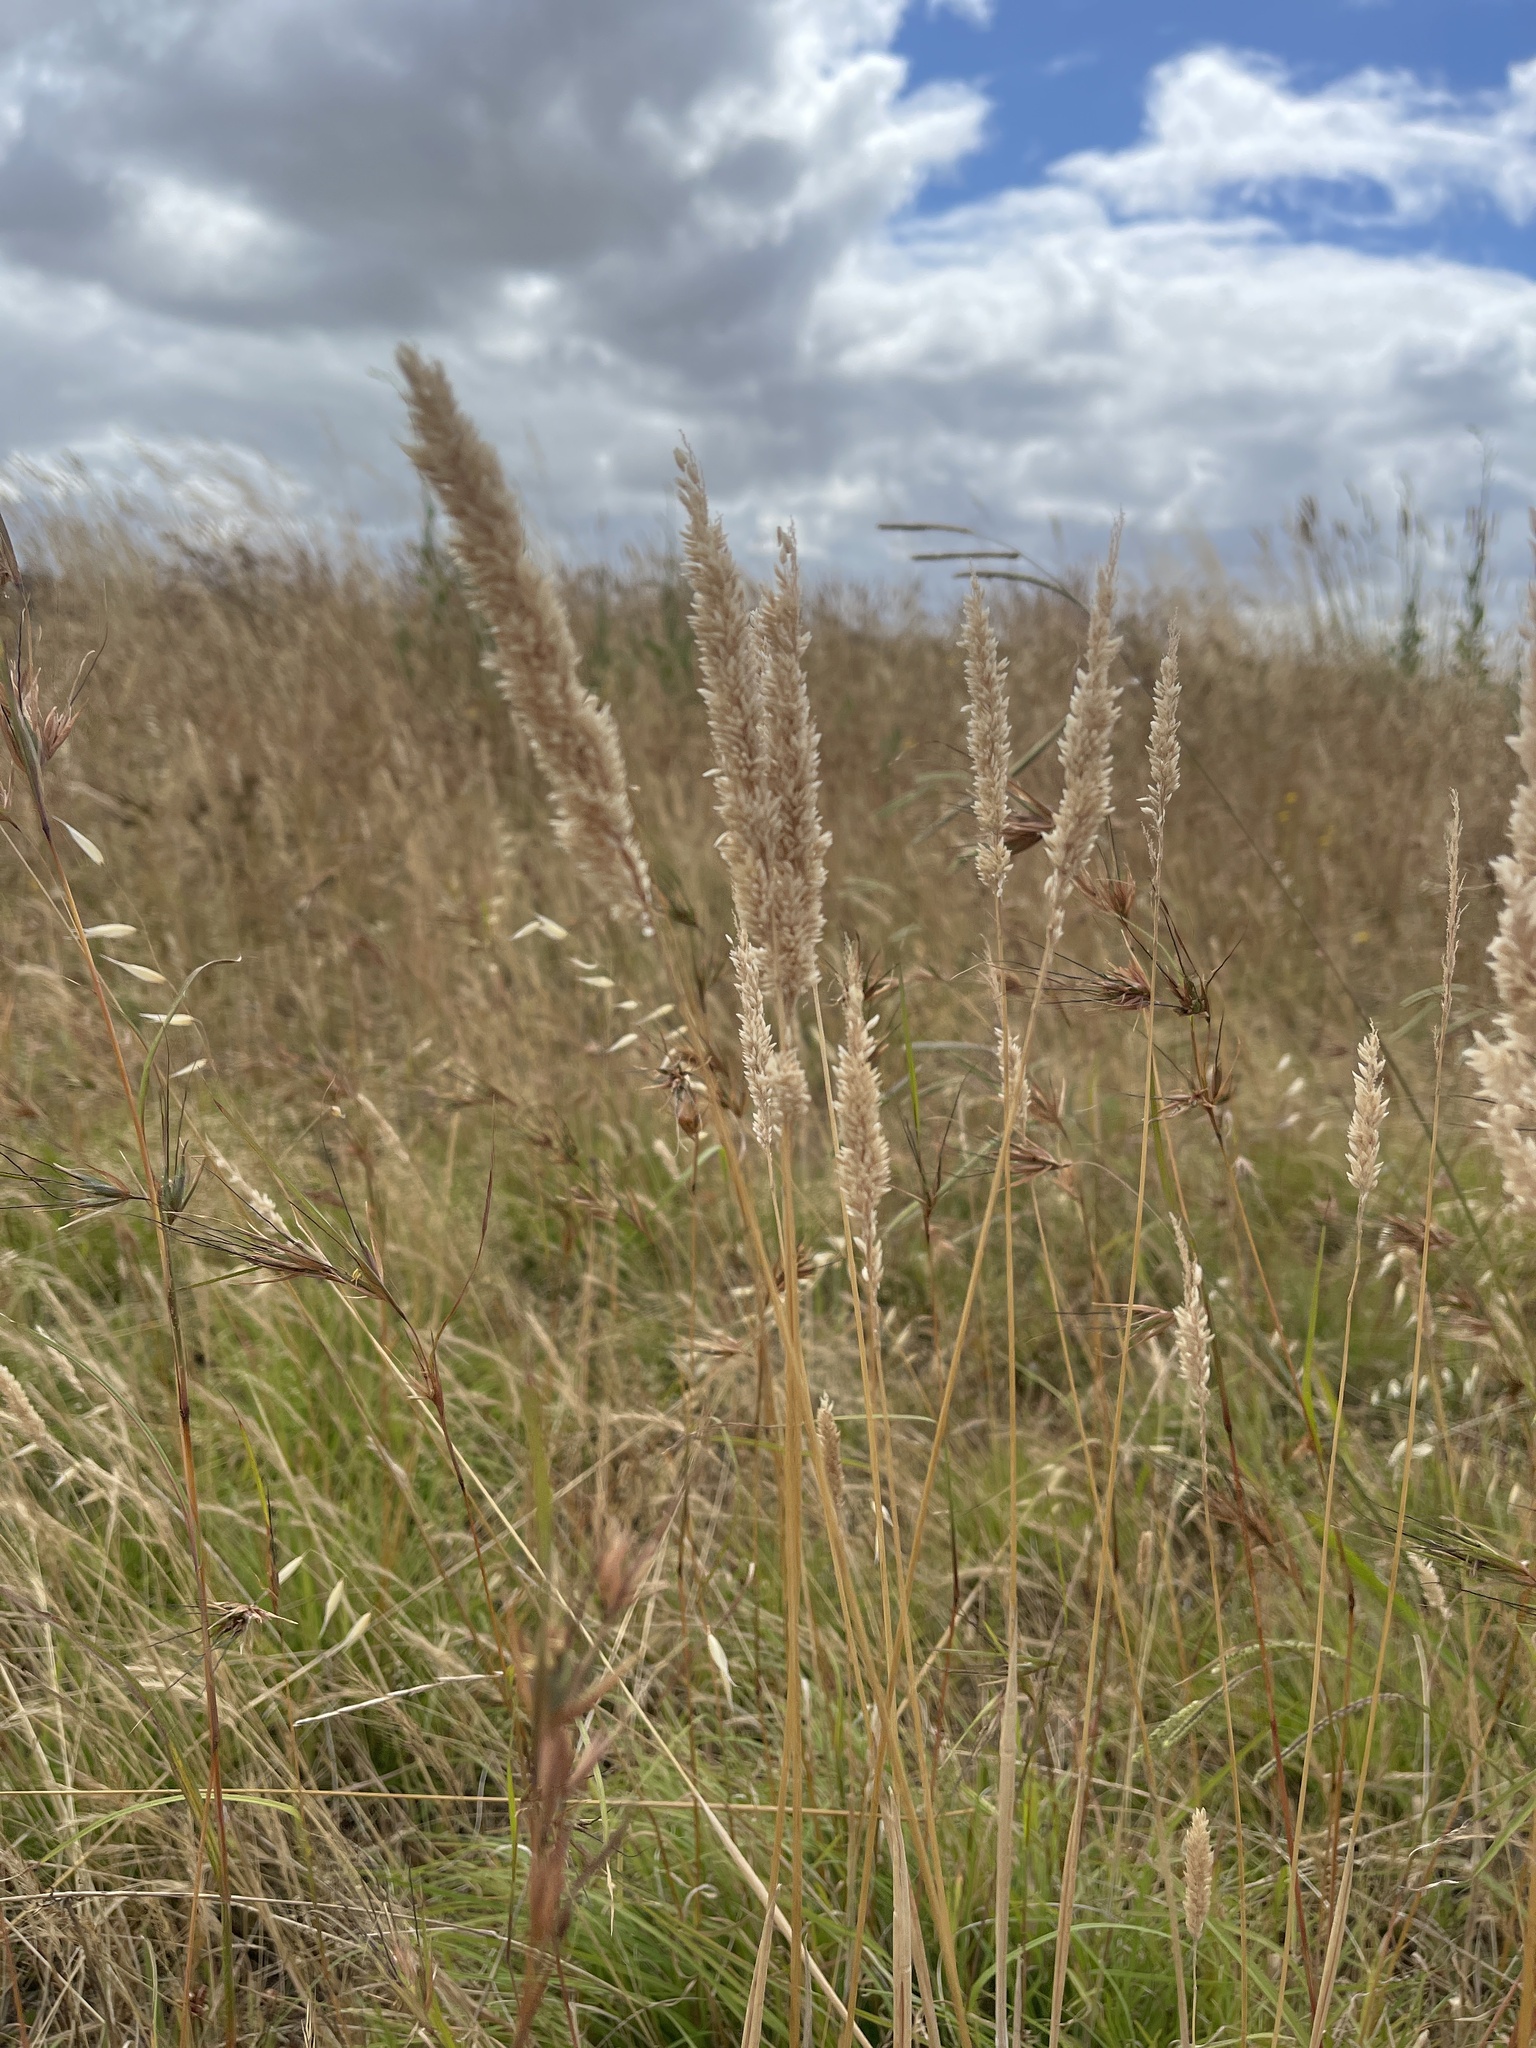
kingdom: Plantae
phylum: Tracheophyta
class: Liliopsida
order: Poales
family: Poaceae
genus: Holcus
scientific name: Holcus lanatus
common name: Yorkshire-fog
